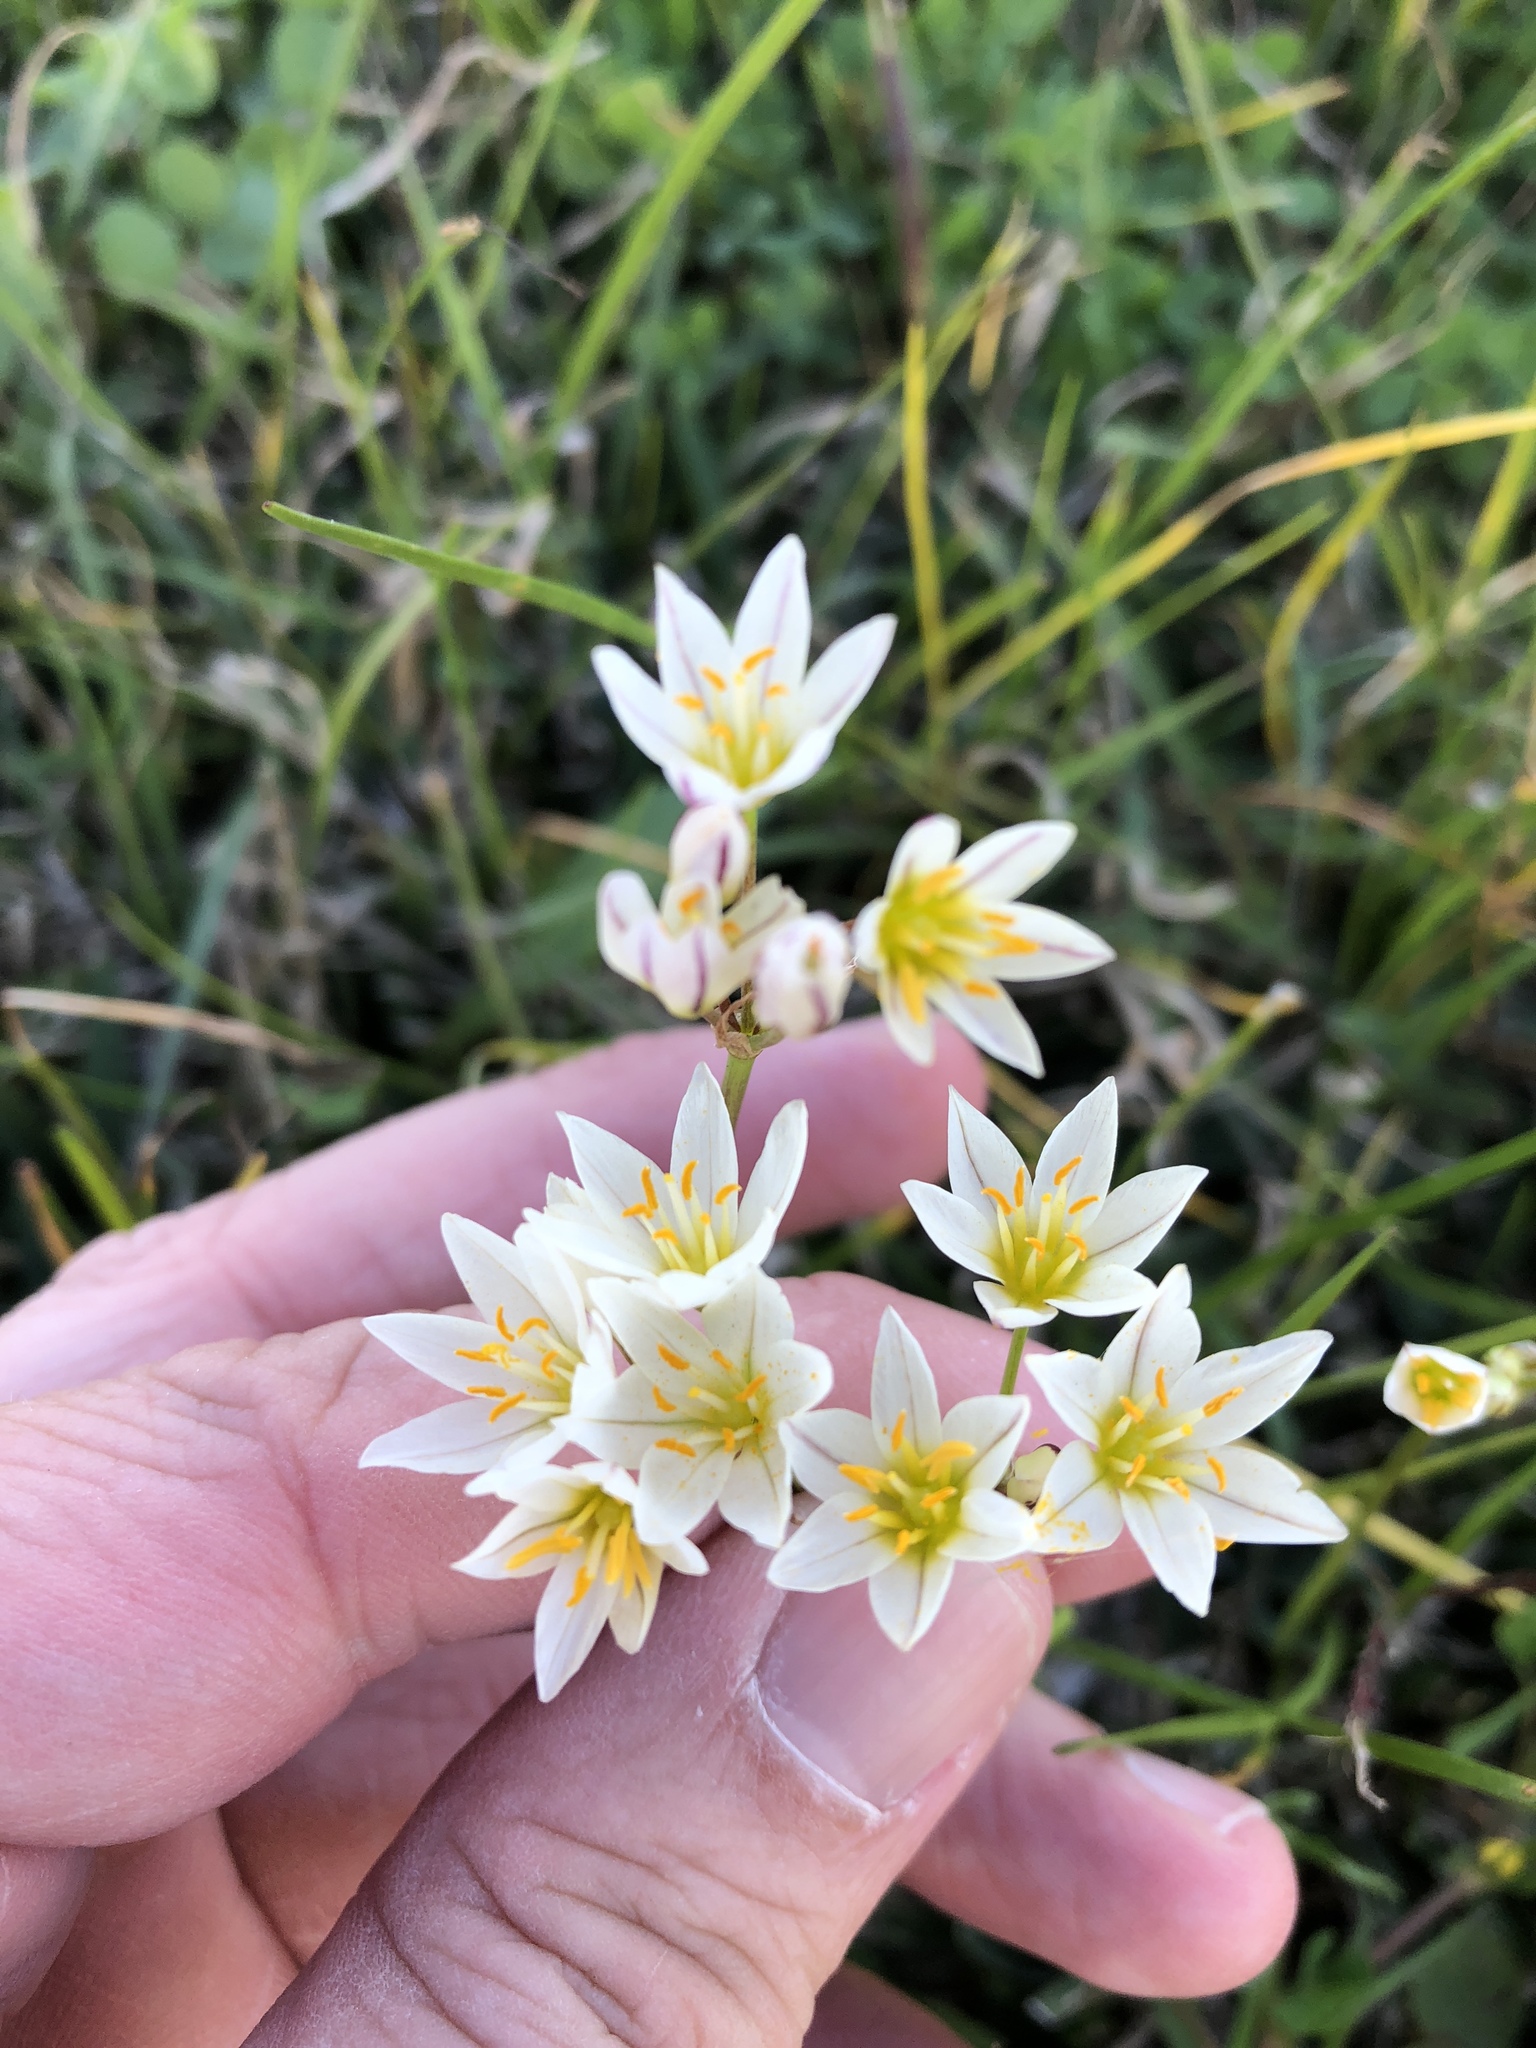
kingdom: Plantae
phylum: Tracheophyta
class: Liliopsida
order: Asparagales
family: Amaryllidaceae
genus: Nothoscordum
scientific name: Nothoscordum bivalve
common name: Crow-poison
